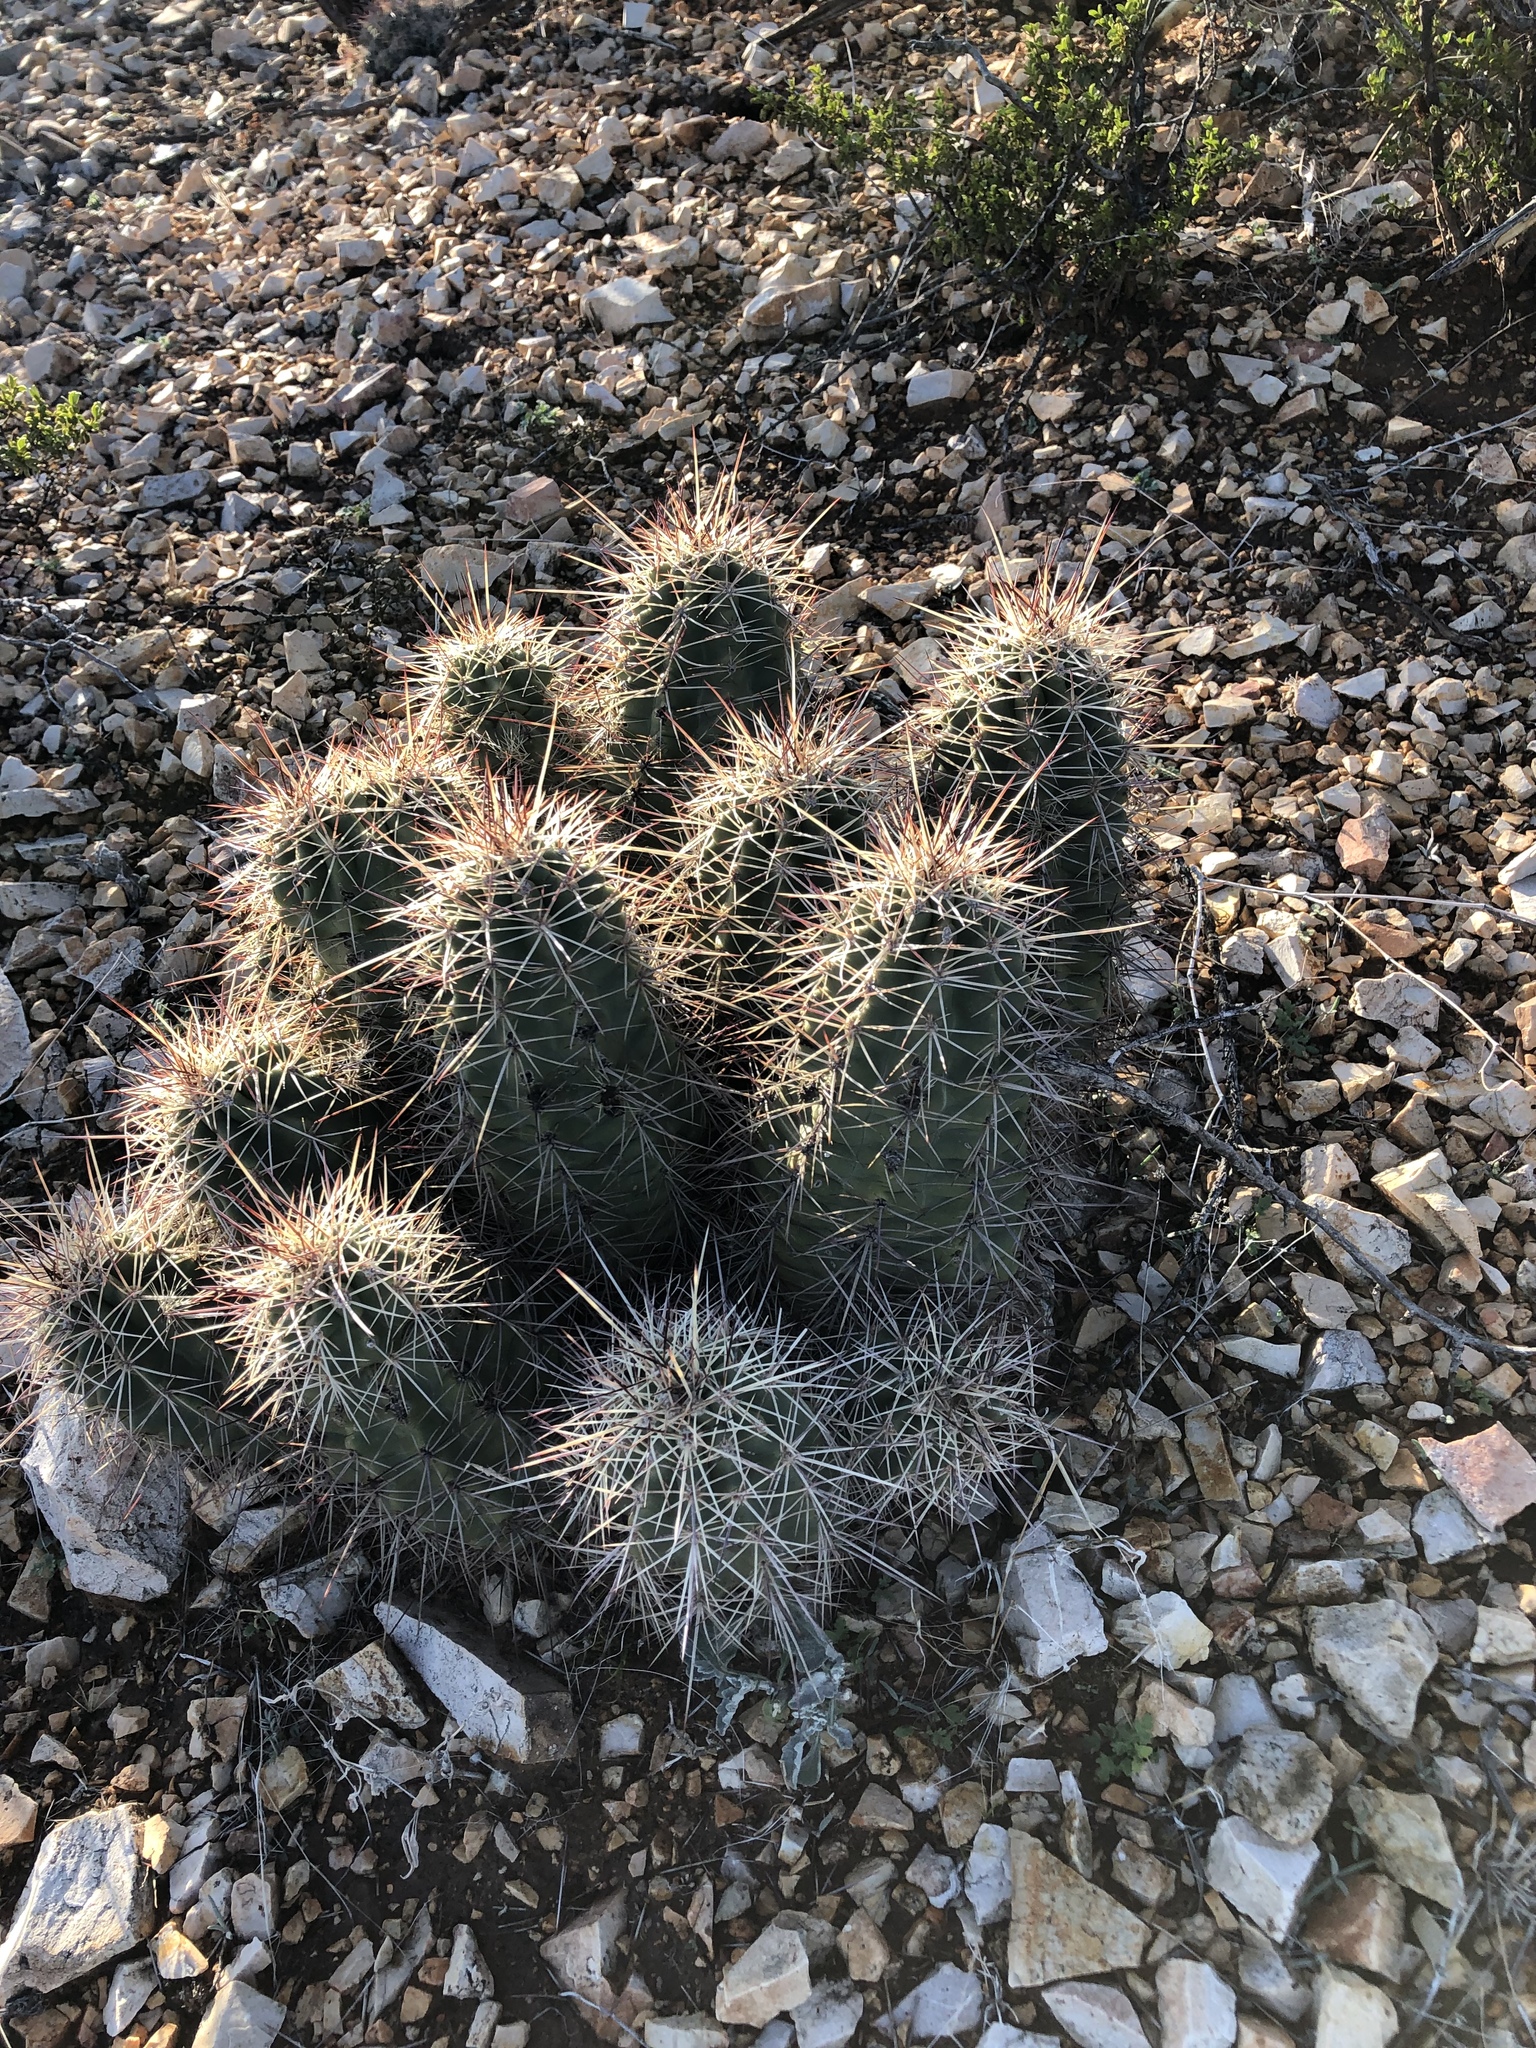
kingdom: Plantae
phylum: Tracheophyta
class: Magnoliopsida
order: Caryophyllales
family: Cactaceae
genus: Echinocereus
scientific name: Echinocereus coccineus
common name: Scarlet hedgehog cactus
